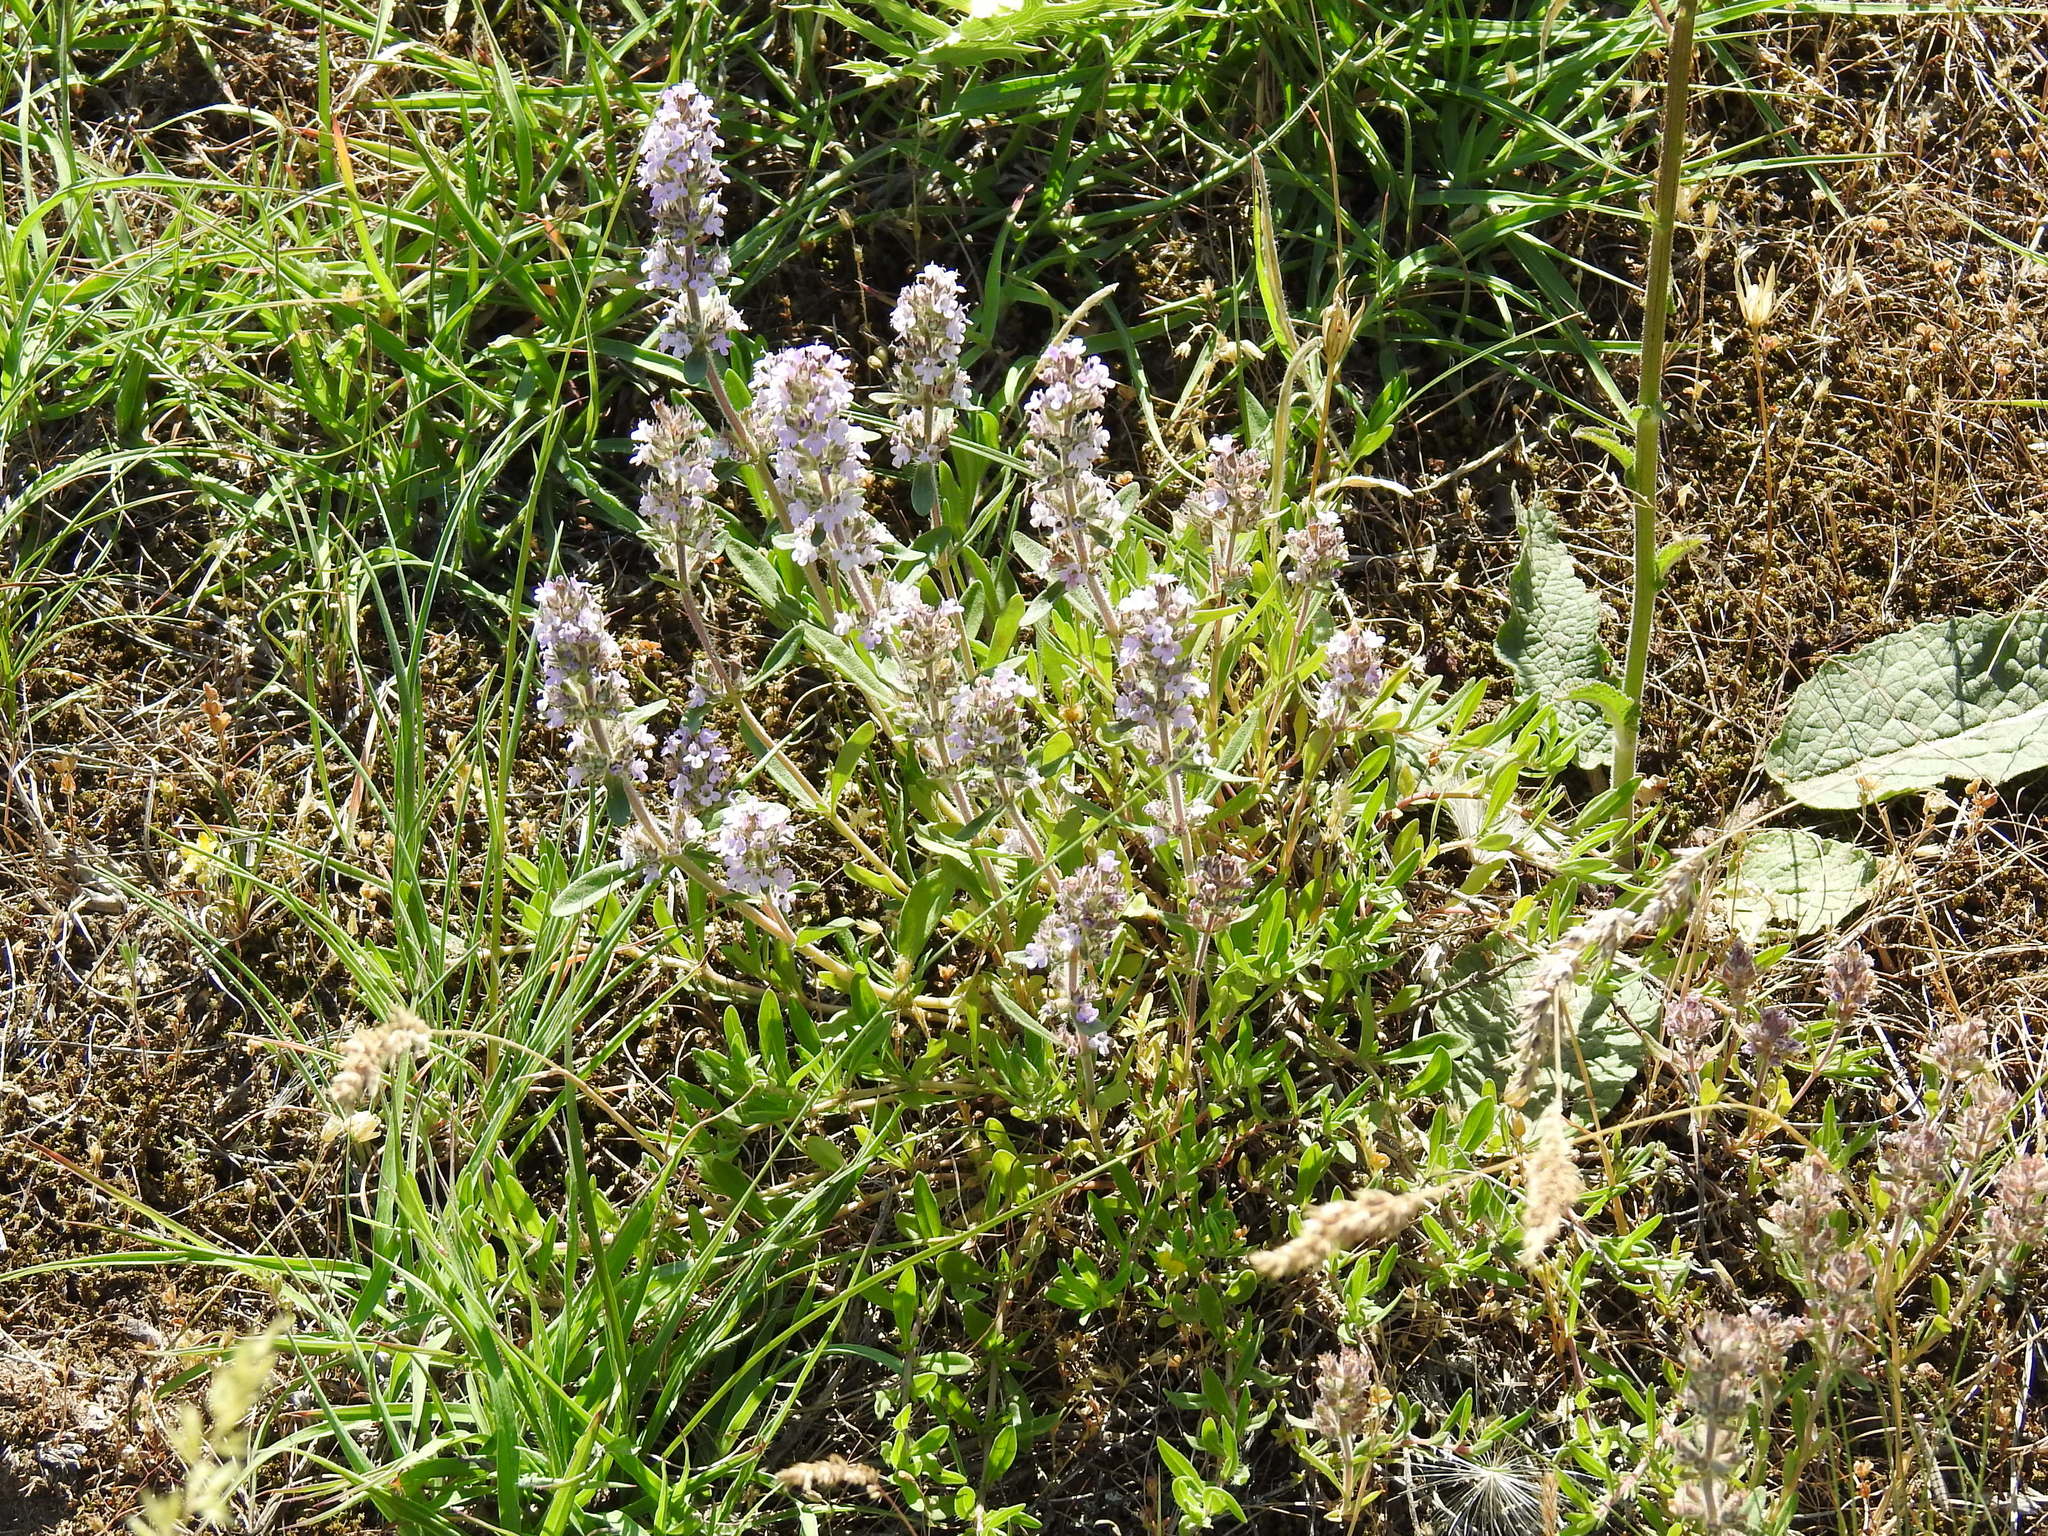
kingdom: Plantae
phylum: Tracheophyta
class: Magnoliopsida
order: Lamiales
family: Lamiaceae
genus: Thymus
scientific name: Thymus pannonicus
